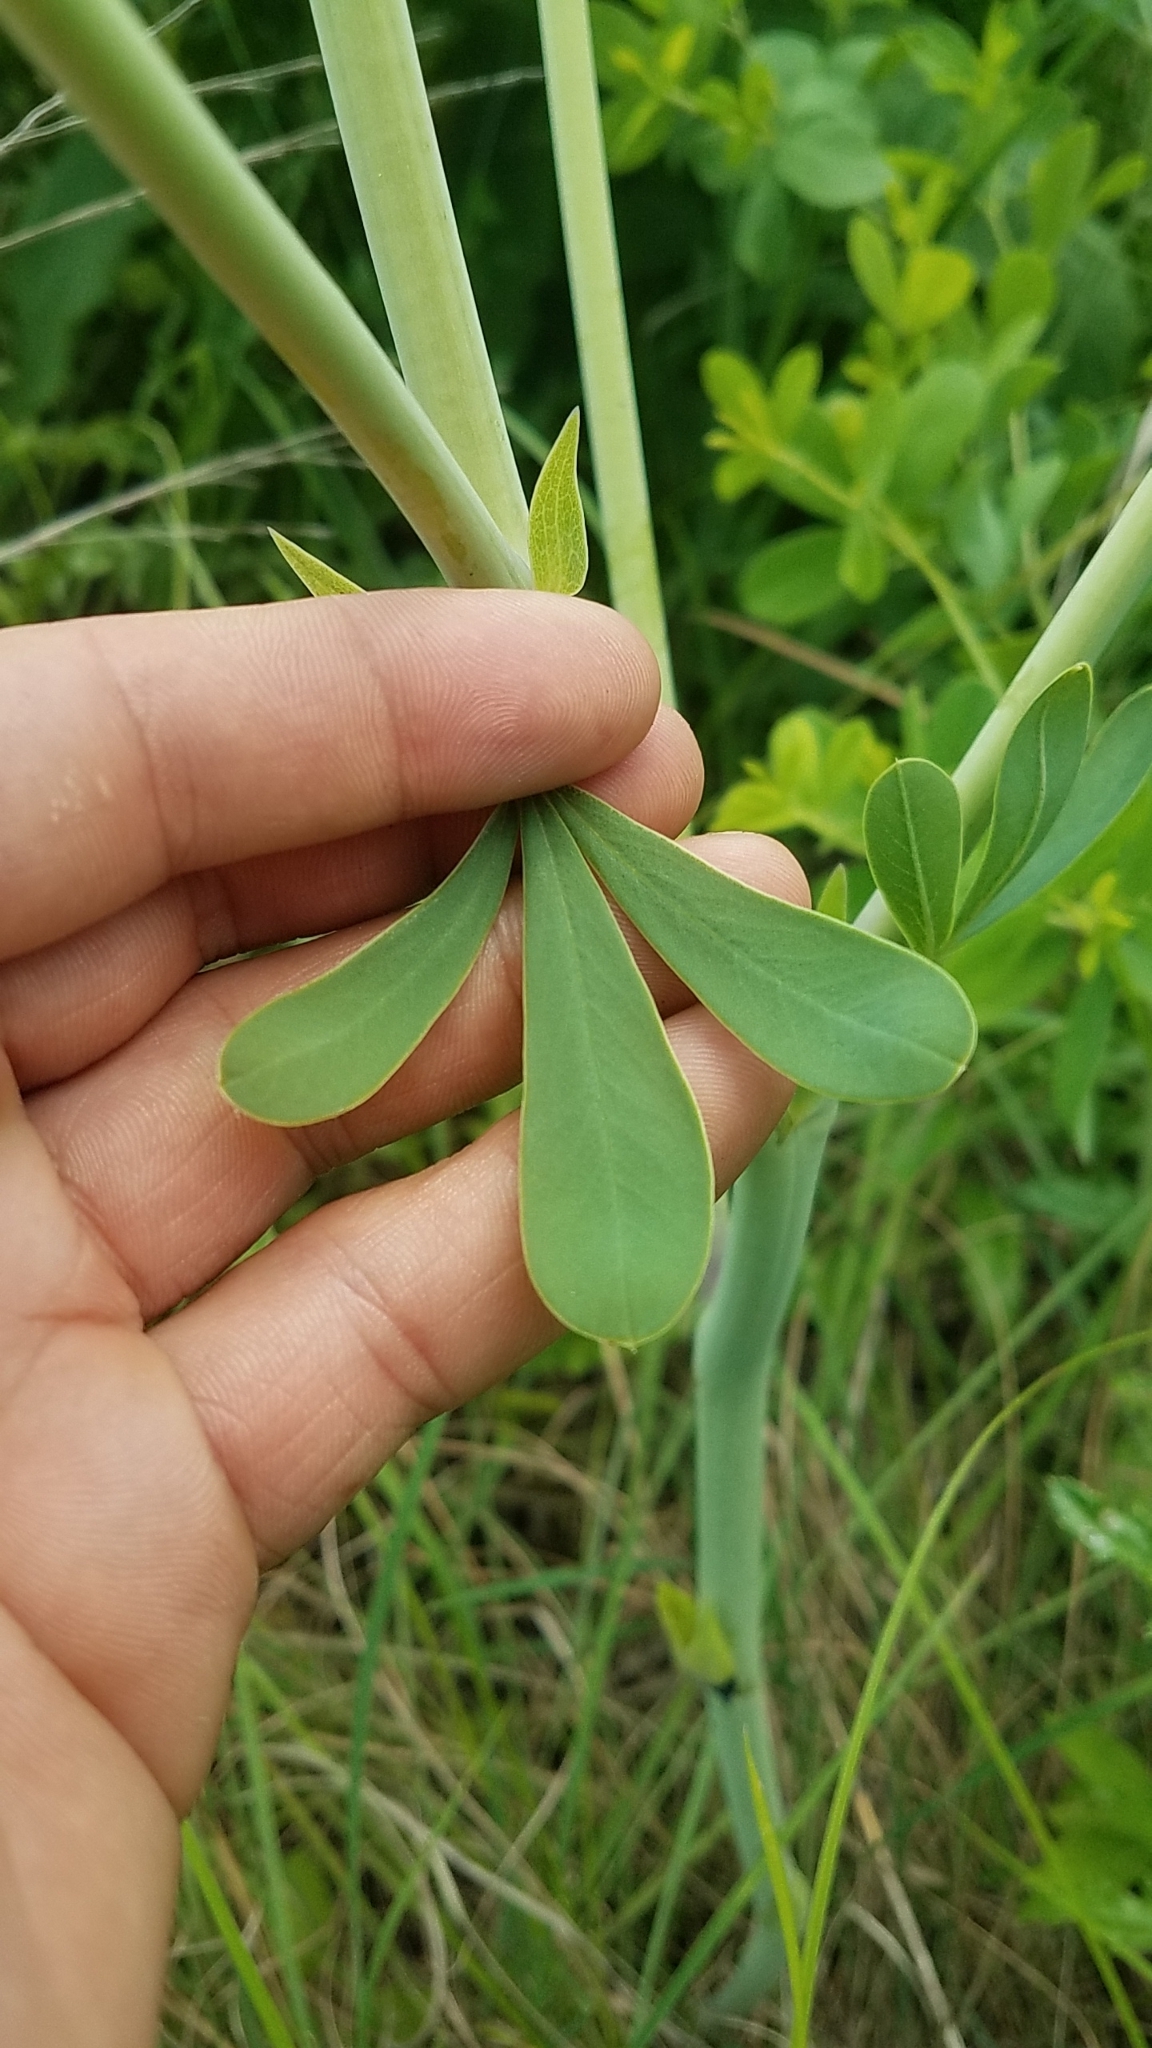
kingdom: Plantae
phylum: Tracheophyta
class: Magnoliopsida
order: Fabales
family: Fabaceae
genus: Baptisia
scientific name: Baptisia alba
